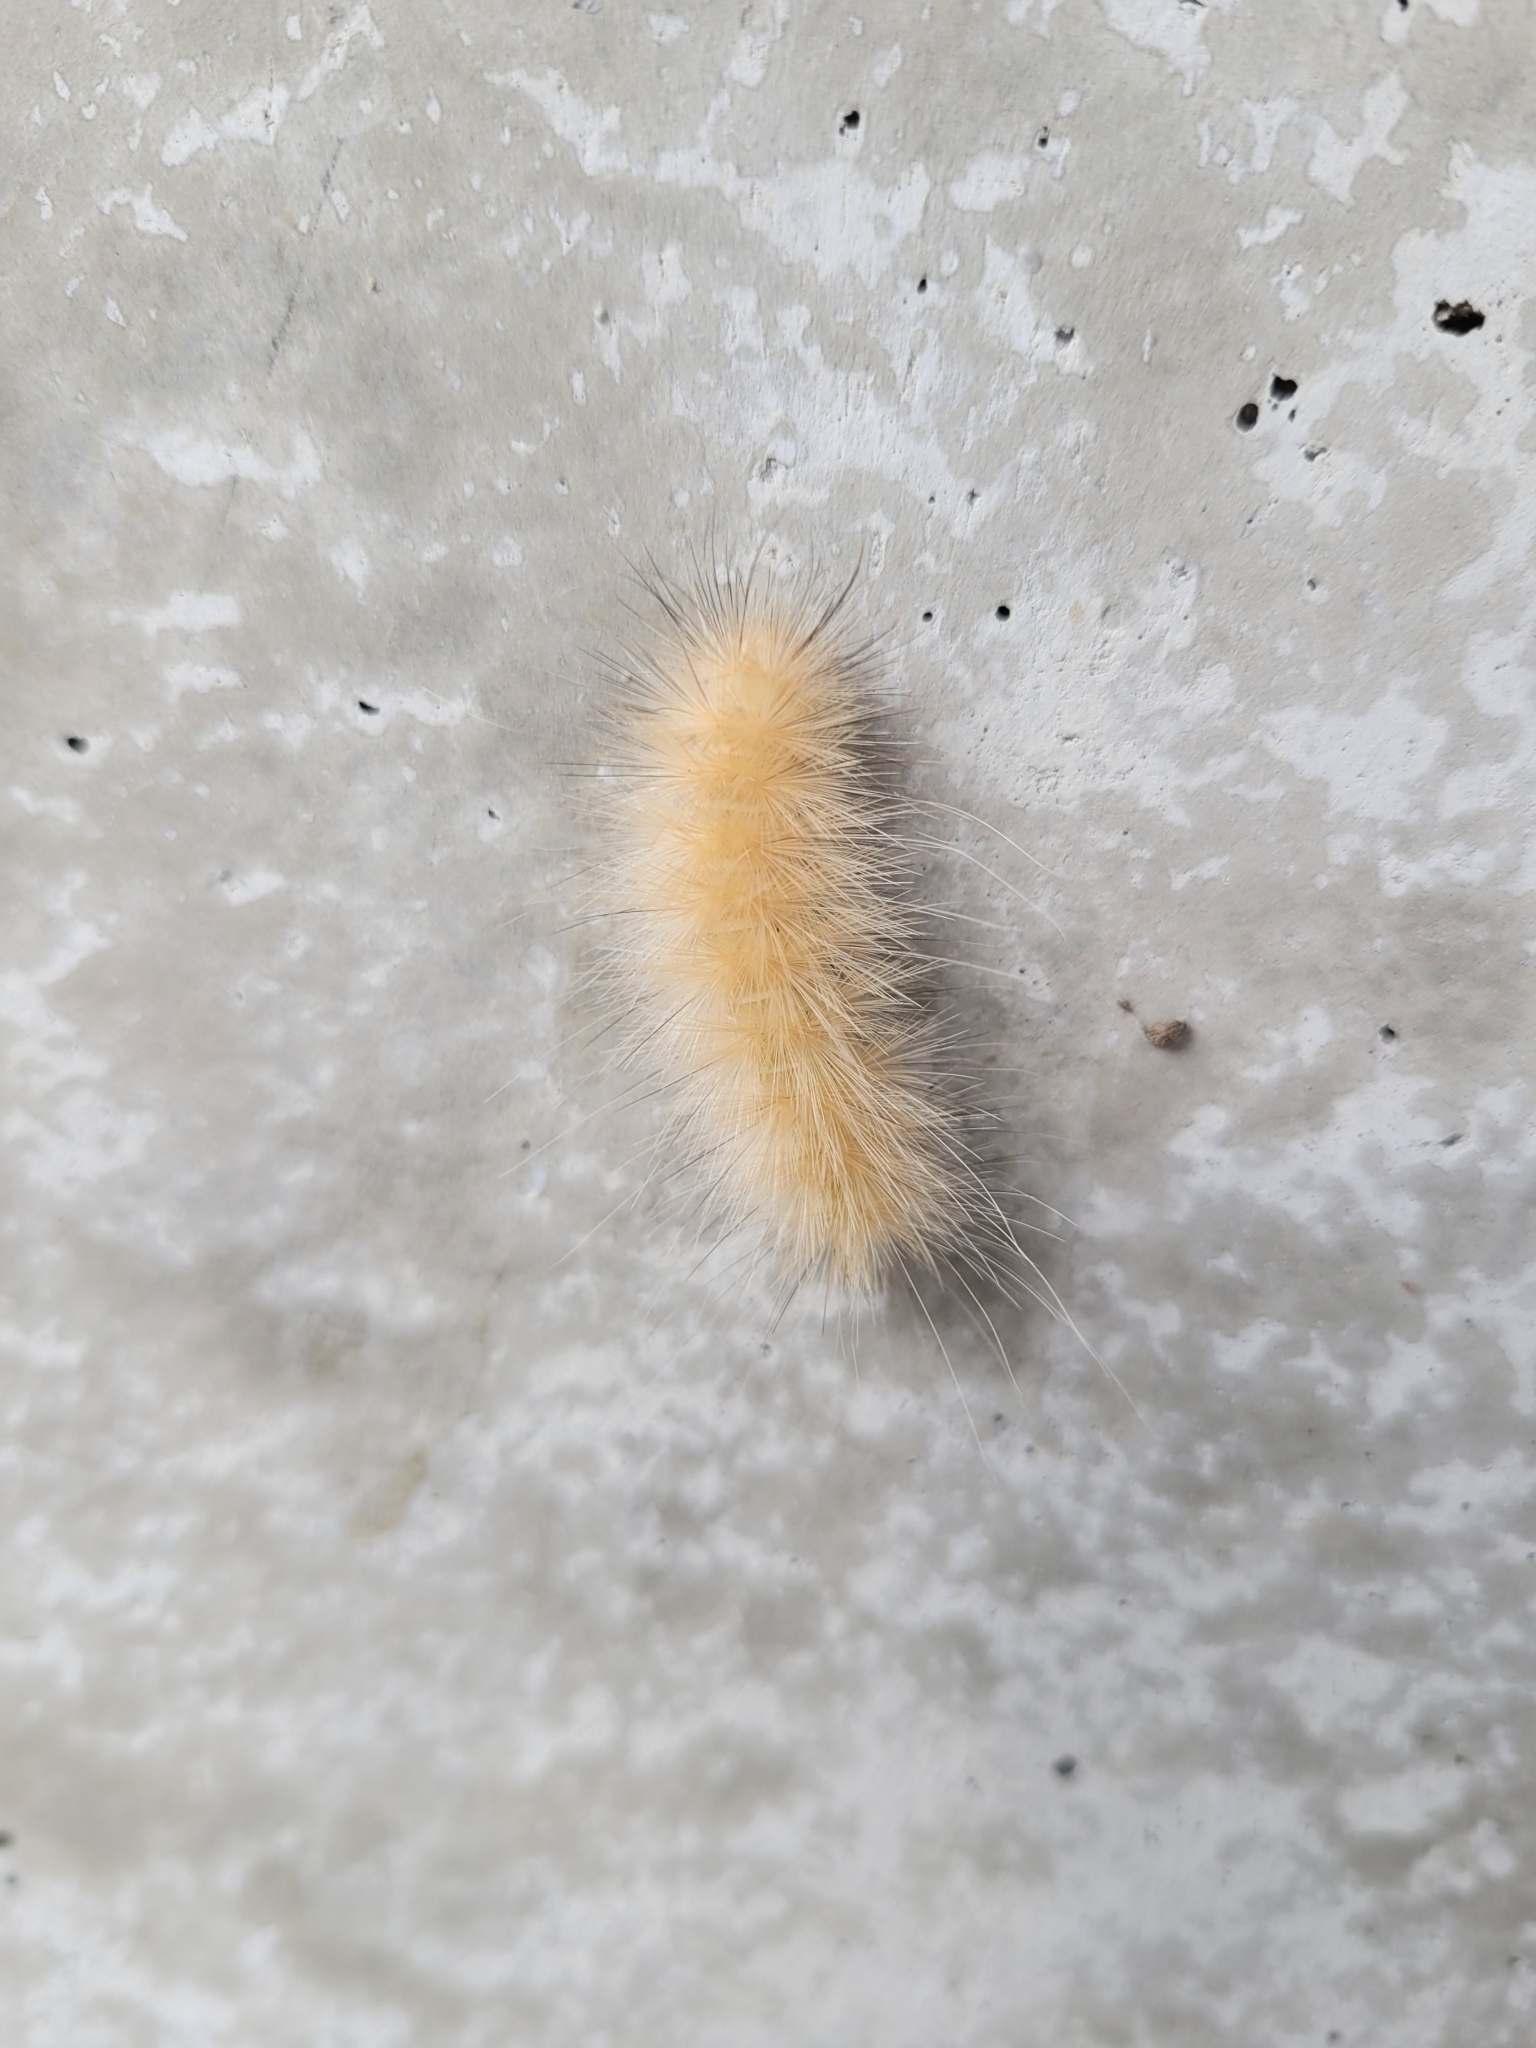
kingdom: Animalia
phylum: Arthropoda
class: Insecta
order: Lepidoptera
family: Erebidae
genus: Spilosoma
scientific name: Spilosoma virginica
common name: Virginia tiger moth
